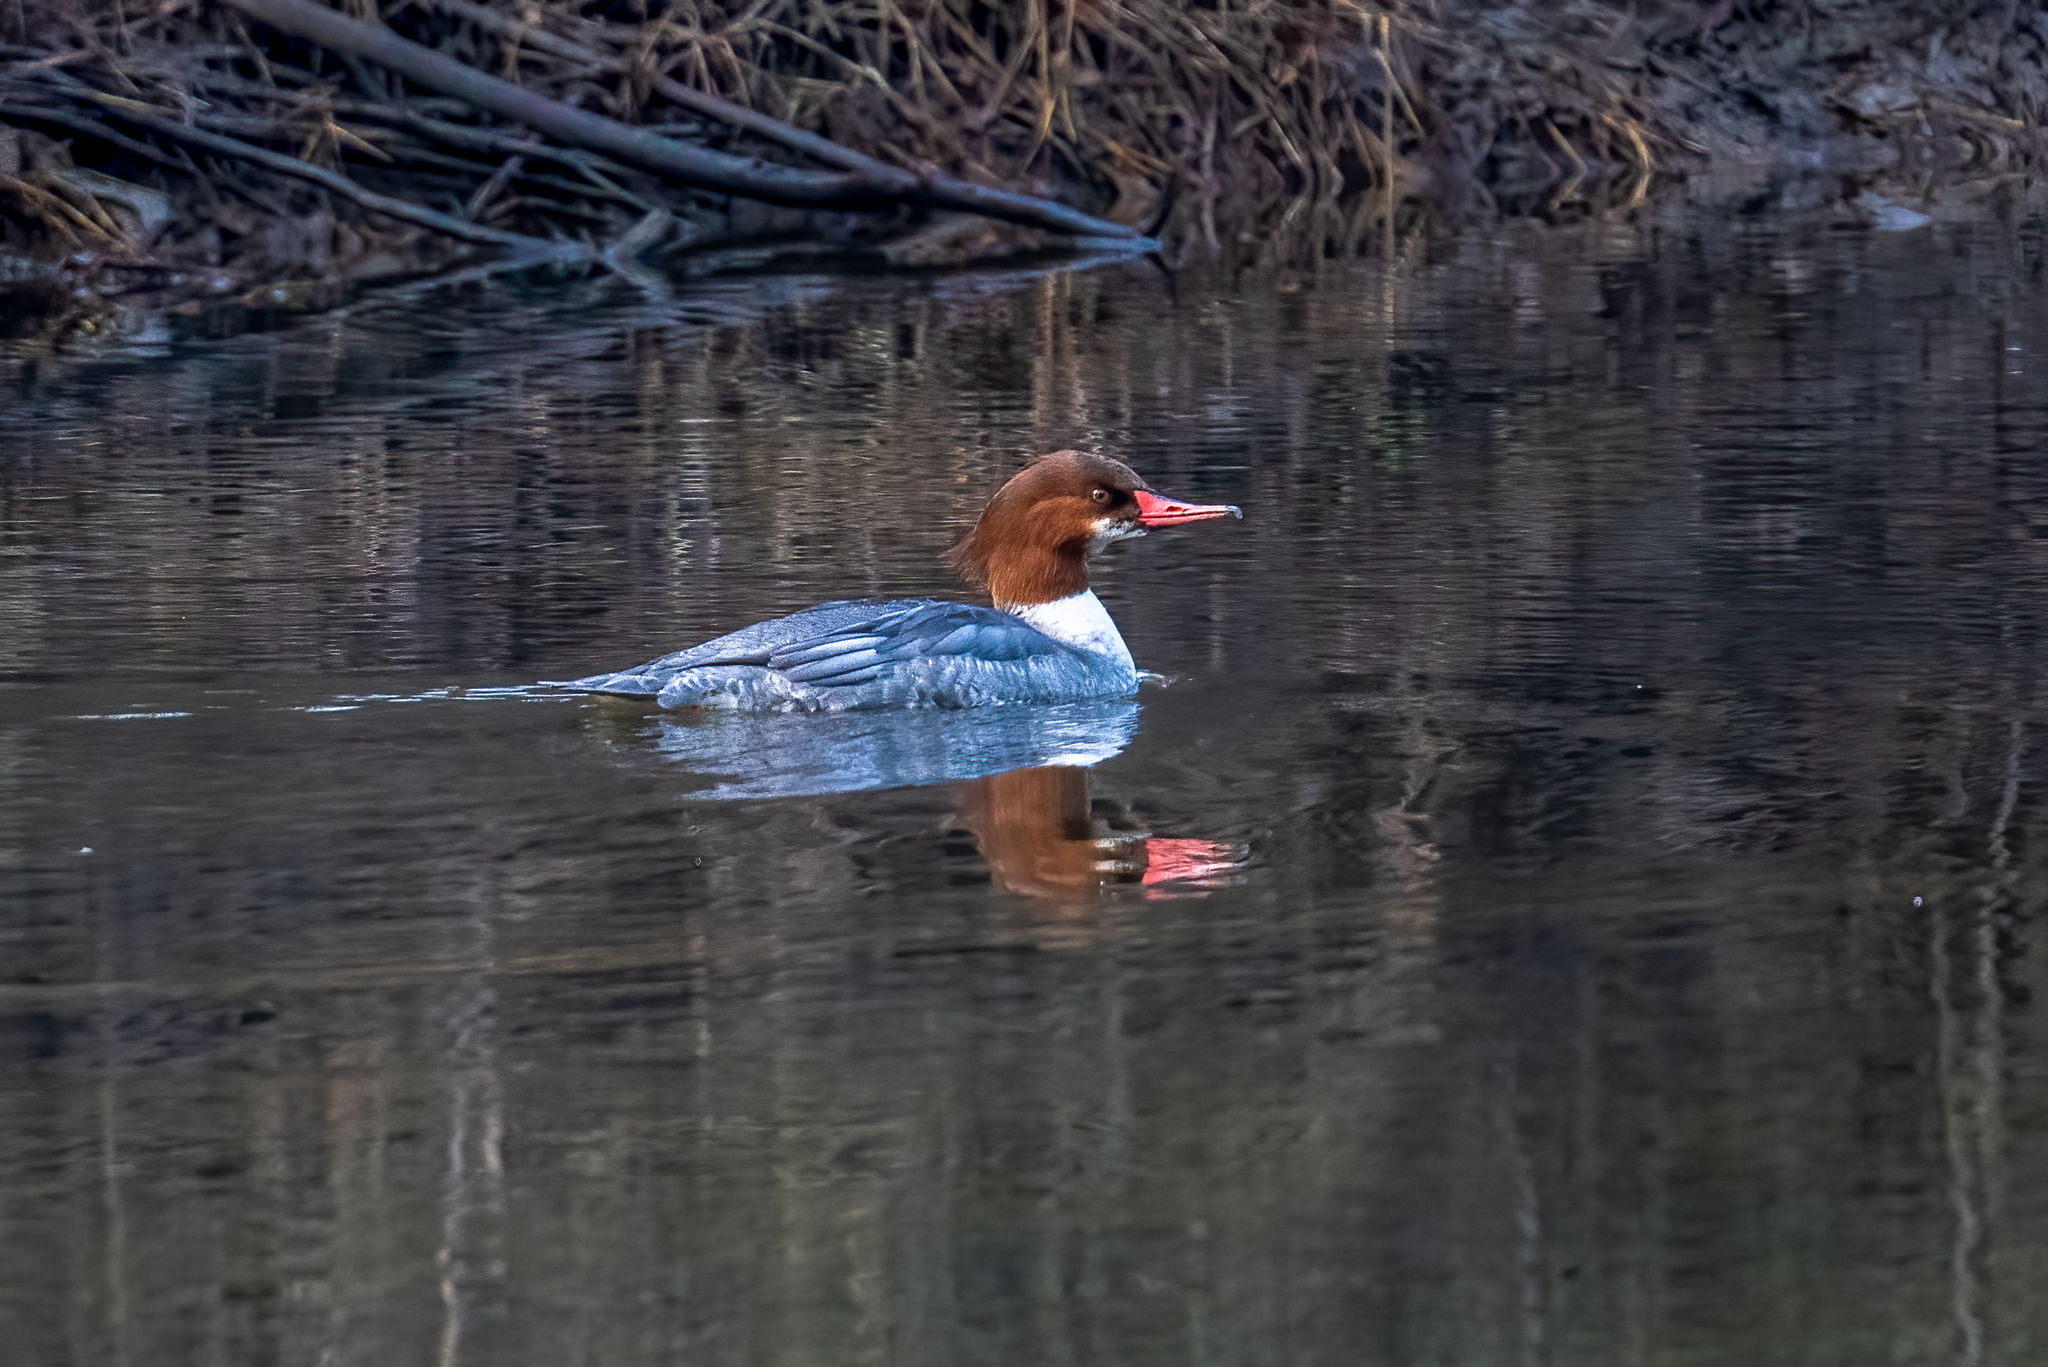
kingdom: Animalia
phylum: Chordata
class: Aves
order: Anseriformes
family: Anatidae
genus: Mergus
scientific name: Mergus merganser
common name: Common merganser
